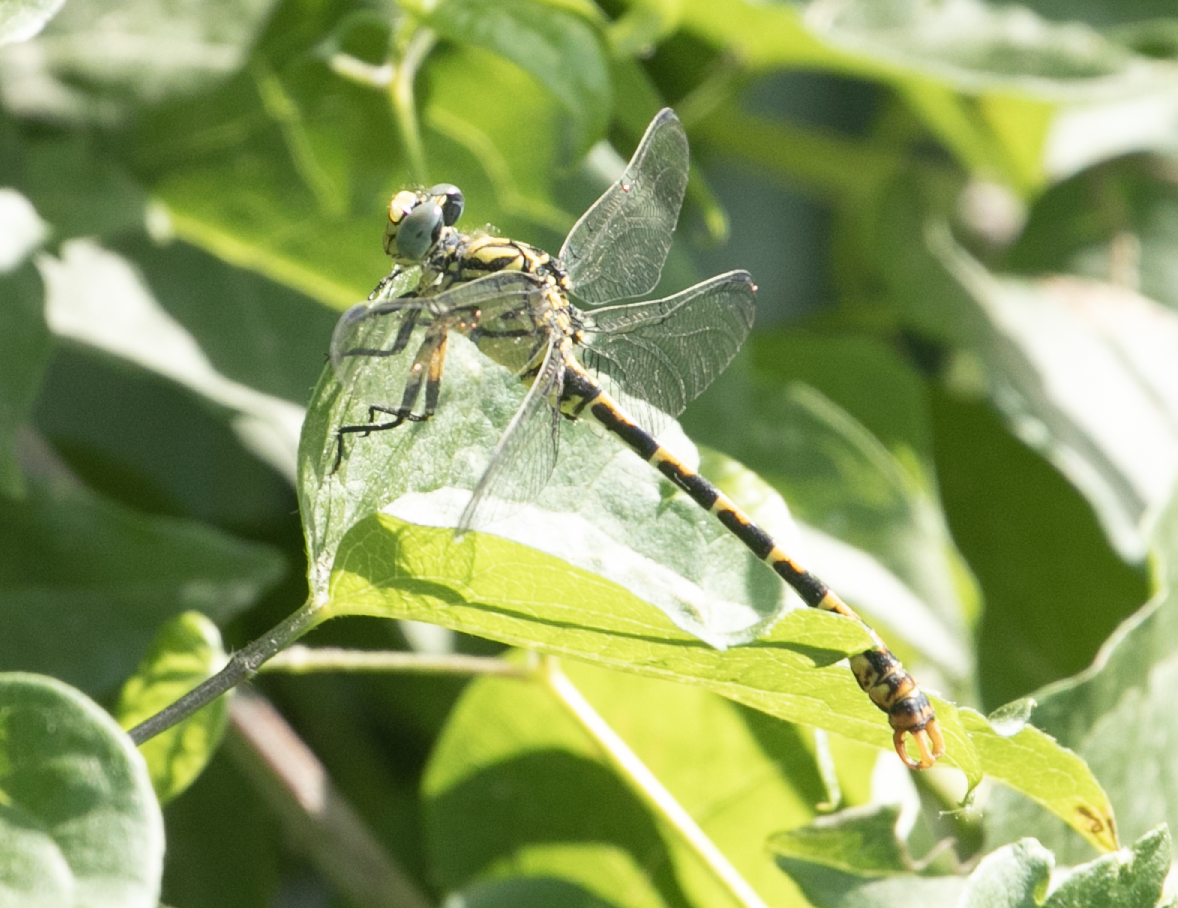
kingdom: Animalia
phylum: Arthropoda
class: Insecta
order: Odonata
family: Gomphidae
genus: Onychogomphus
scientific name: Onychogomphus forcipatus
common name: Small pincertail
